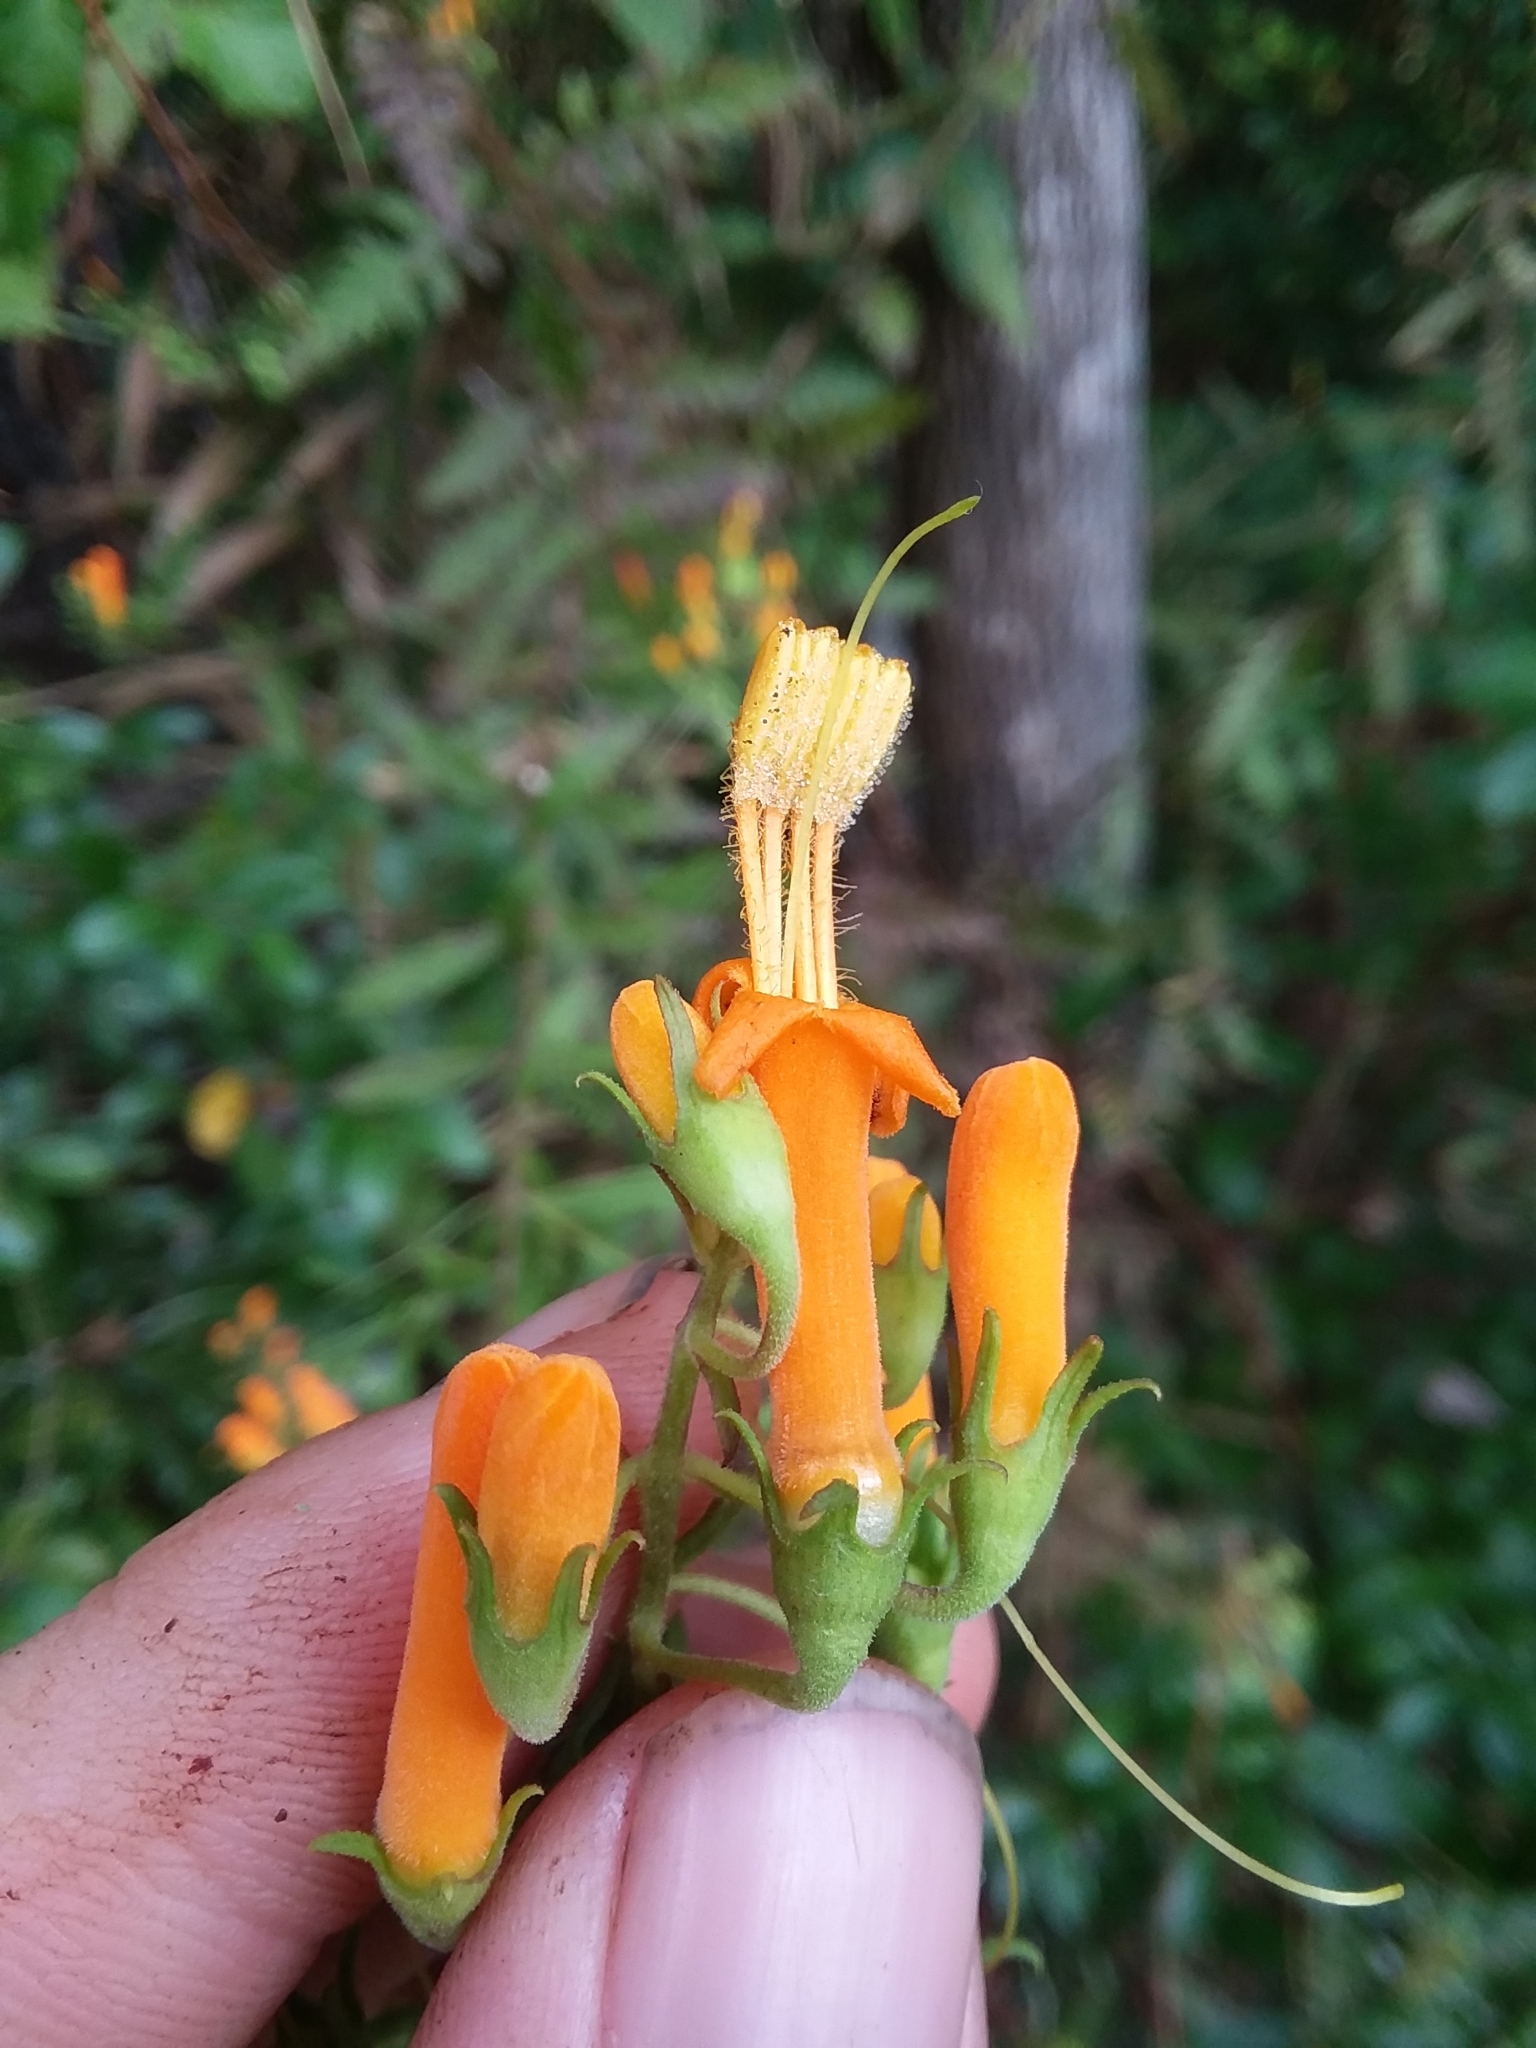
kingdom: Plantae
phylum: Tracheophyta
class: Magnoliopsida
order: Lamiales
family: Orobanchaceae
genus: Macranthera
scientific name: Macranthera flammea
